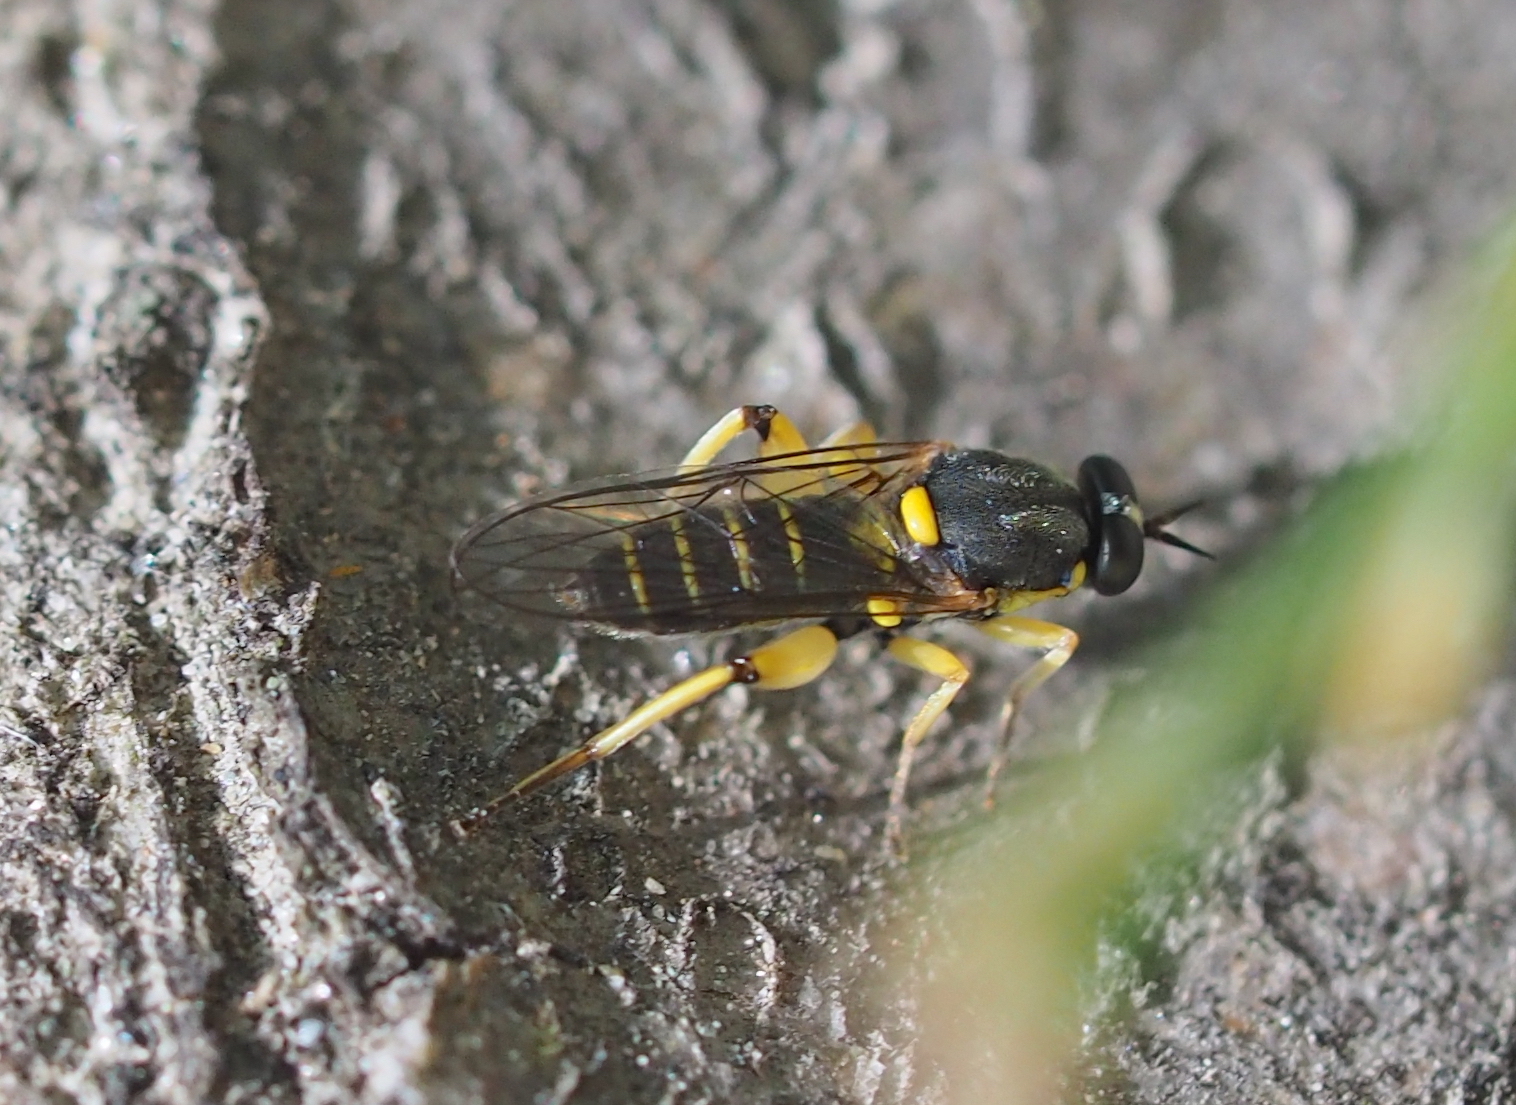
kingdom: Animalia
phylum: Arthropoda
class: Insecta
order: Diptera
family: Xylomyidae
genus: Solva
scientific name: Solva marginata
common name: Drab wood-soldierfly
